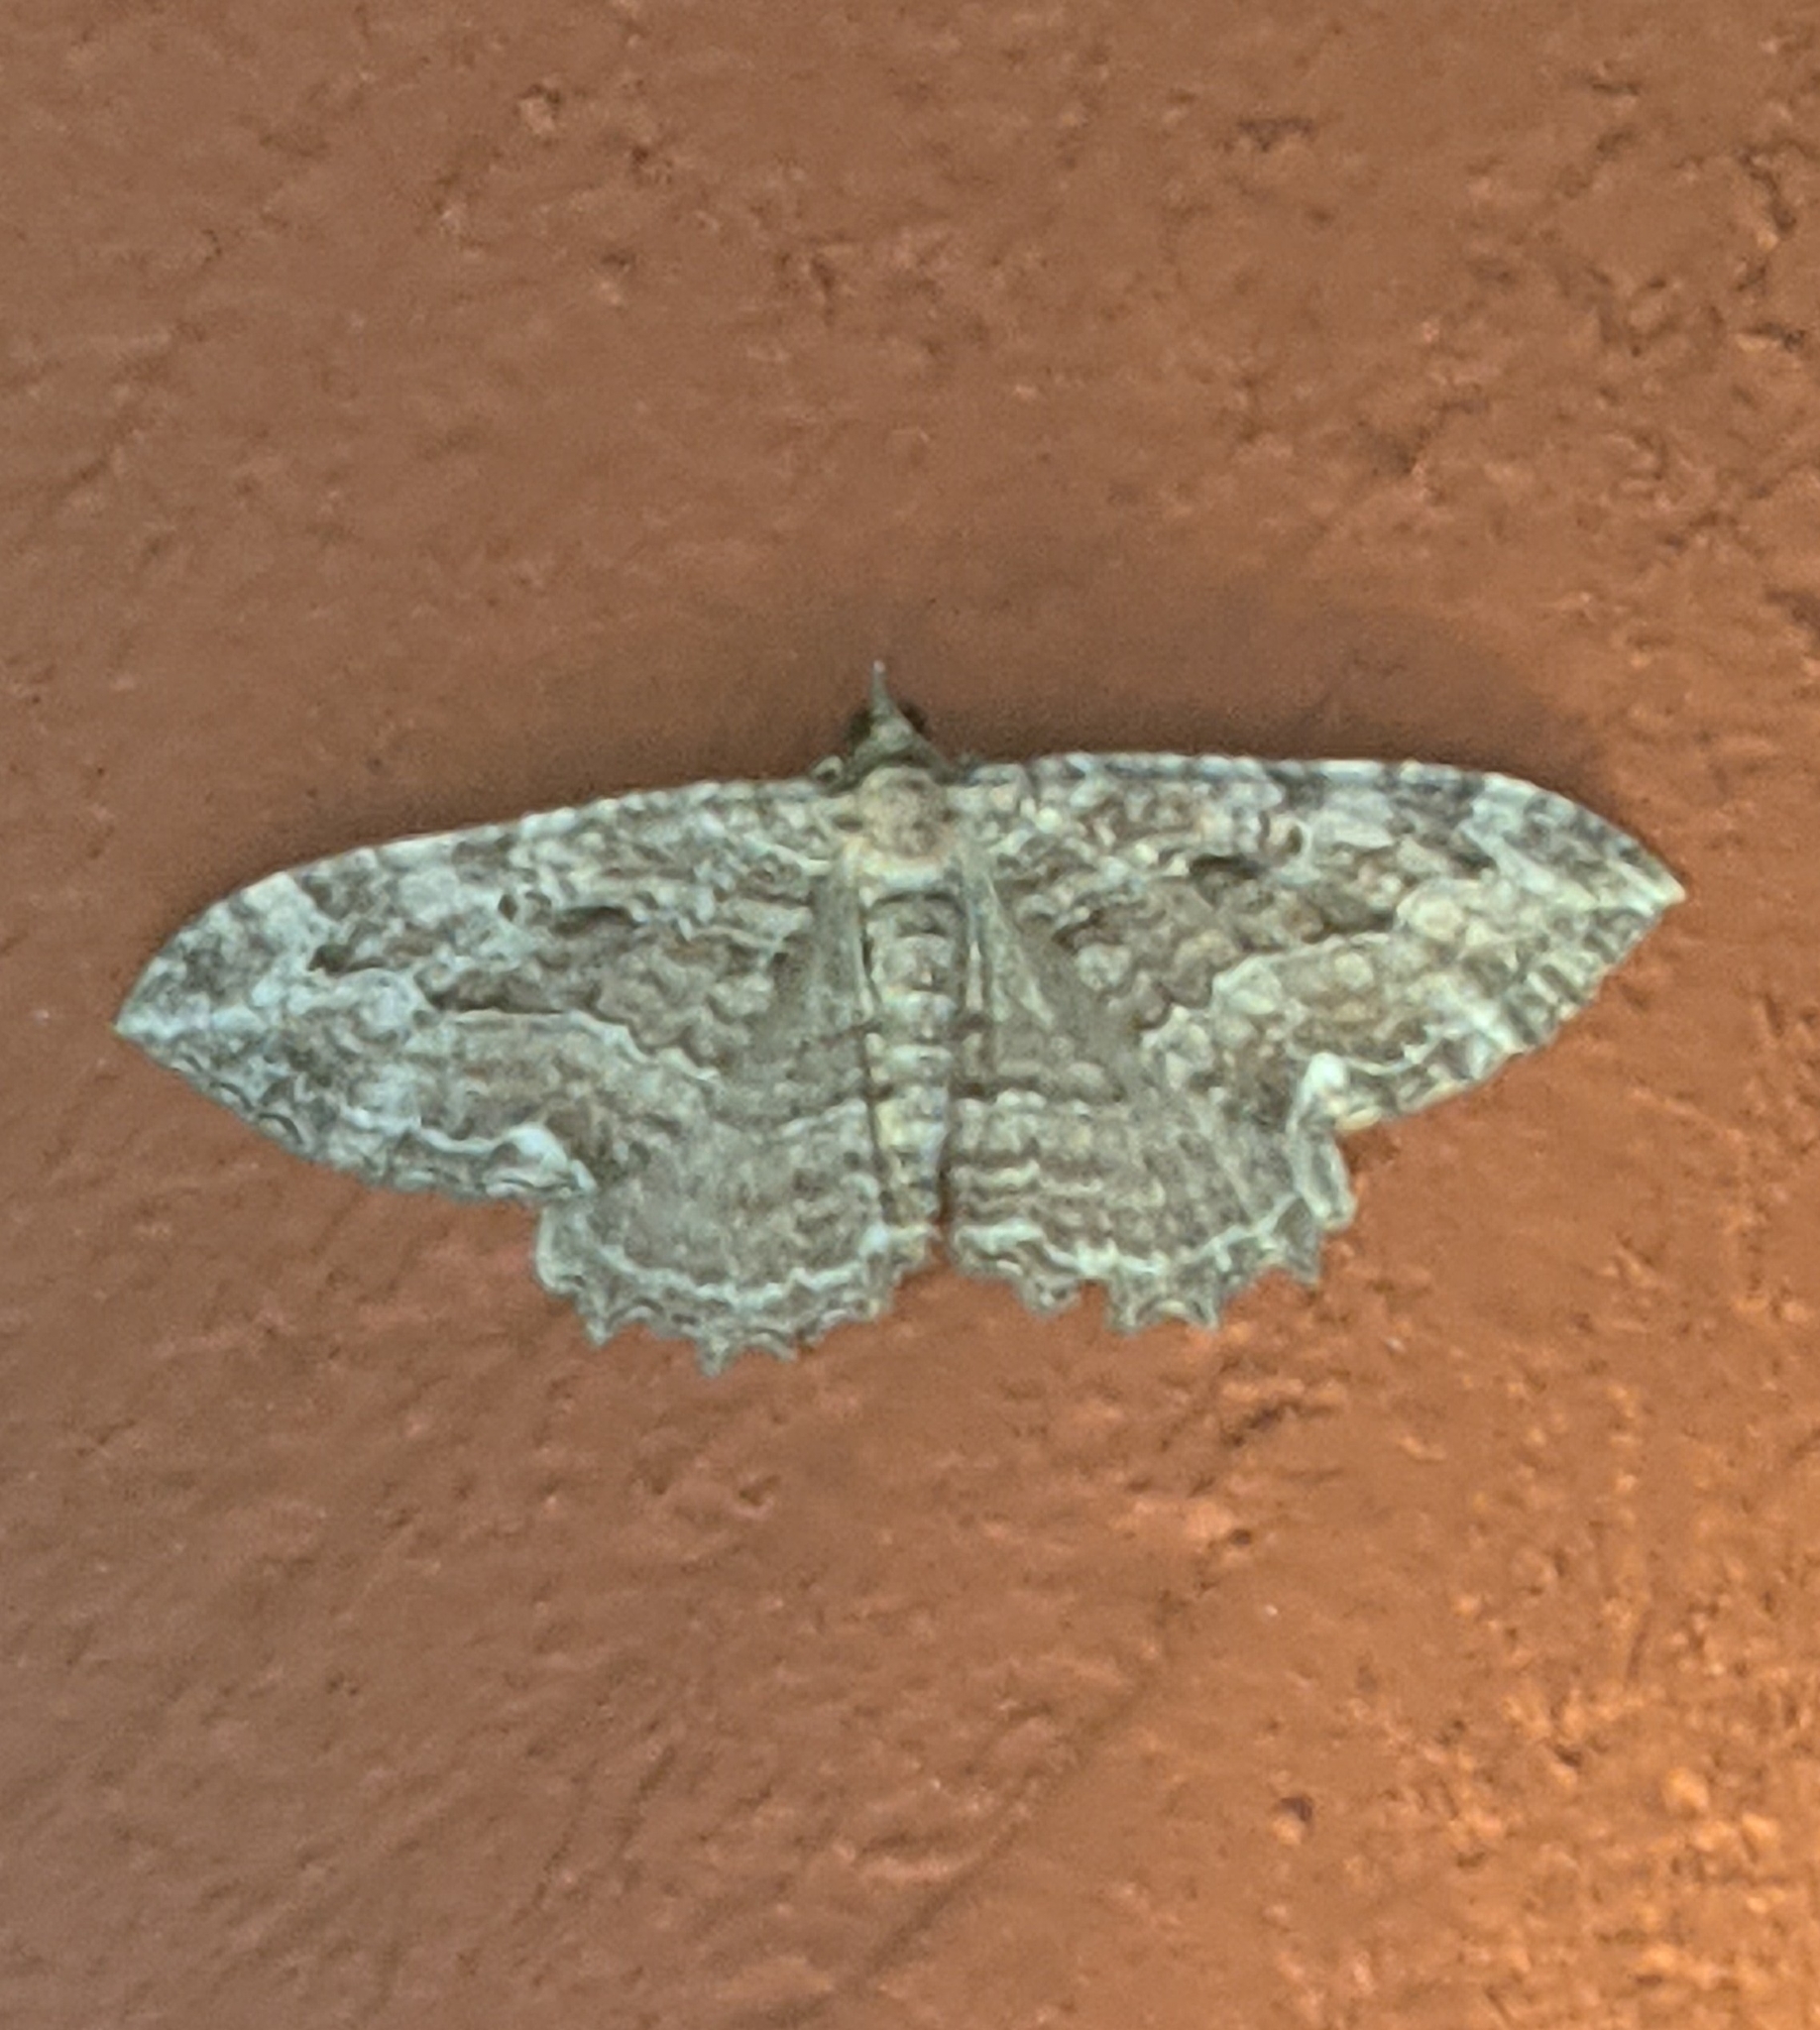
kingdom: Animalia
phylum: Arthropoda
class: Insecta
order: Lepidoptera
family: Geometridae
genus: Rheumaptera
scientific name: Rheumaptera
